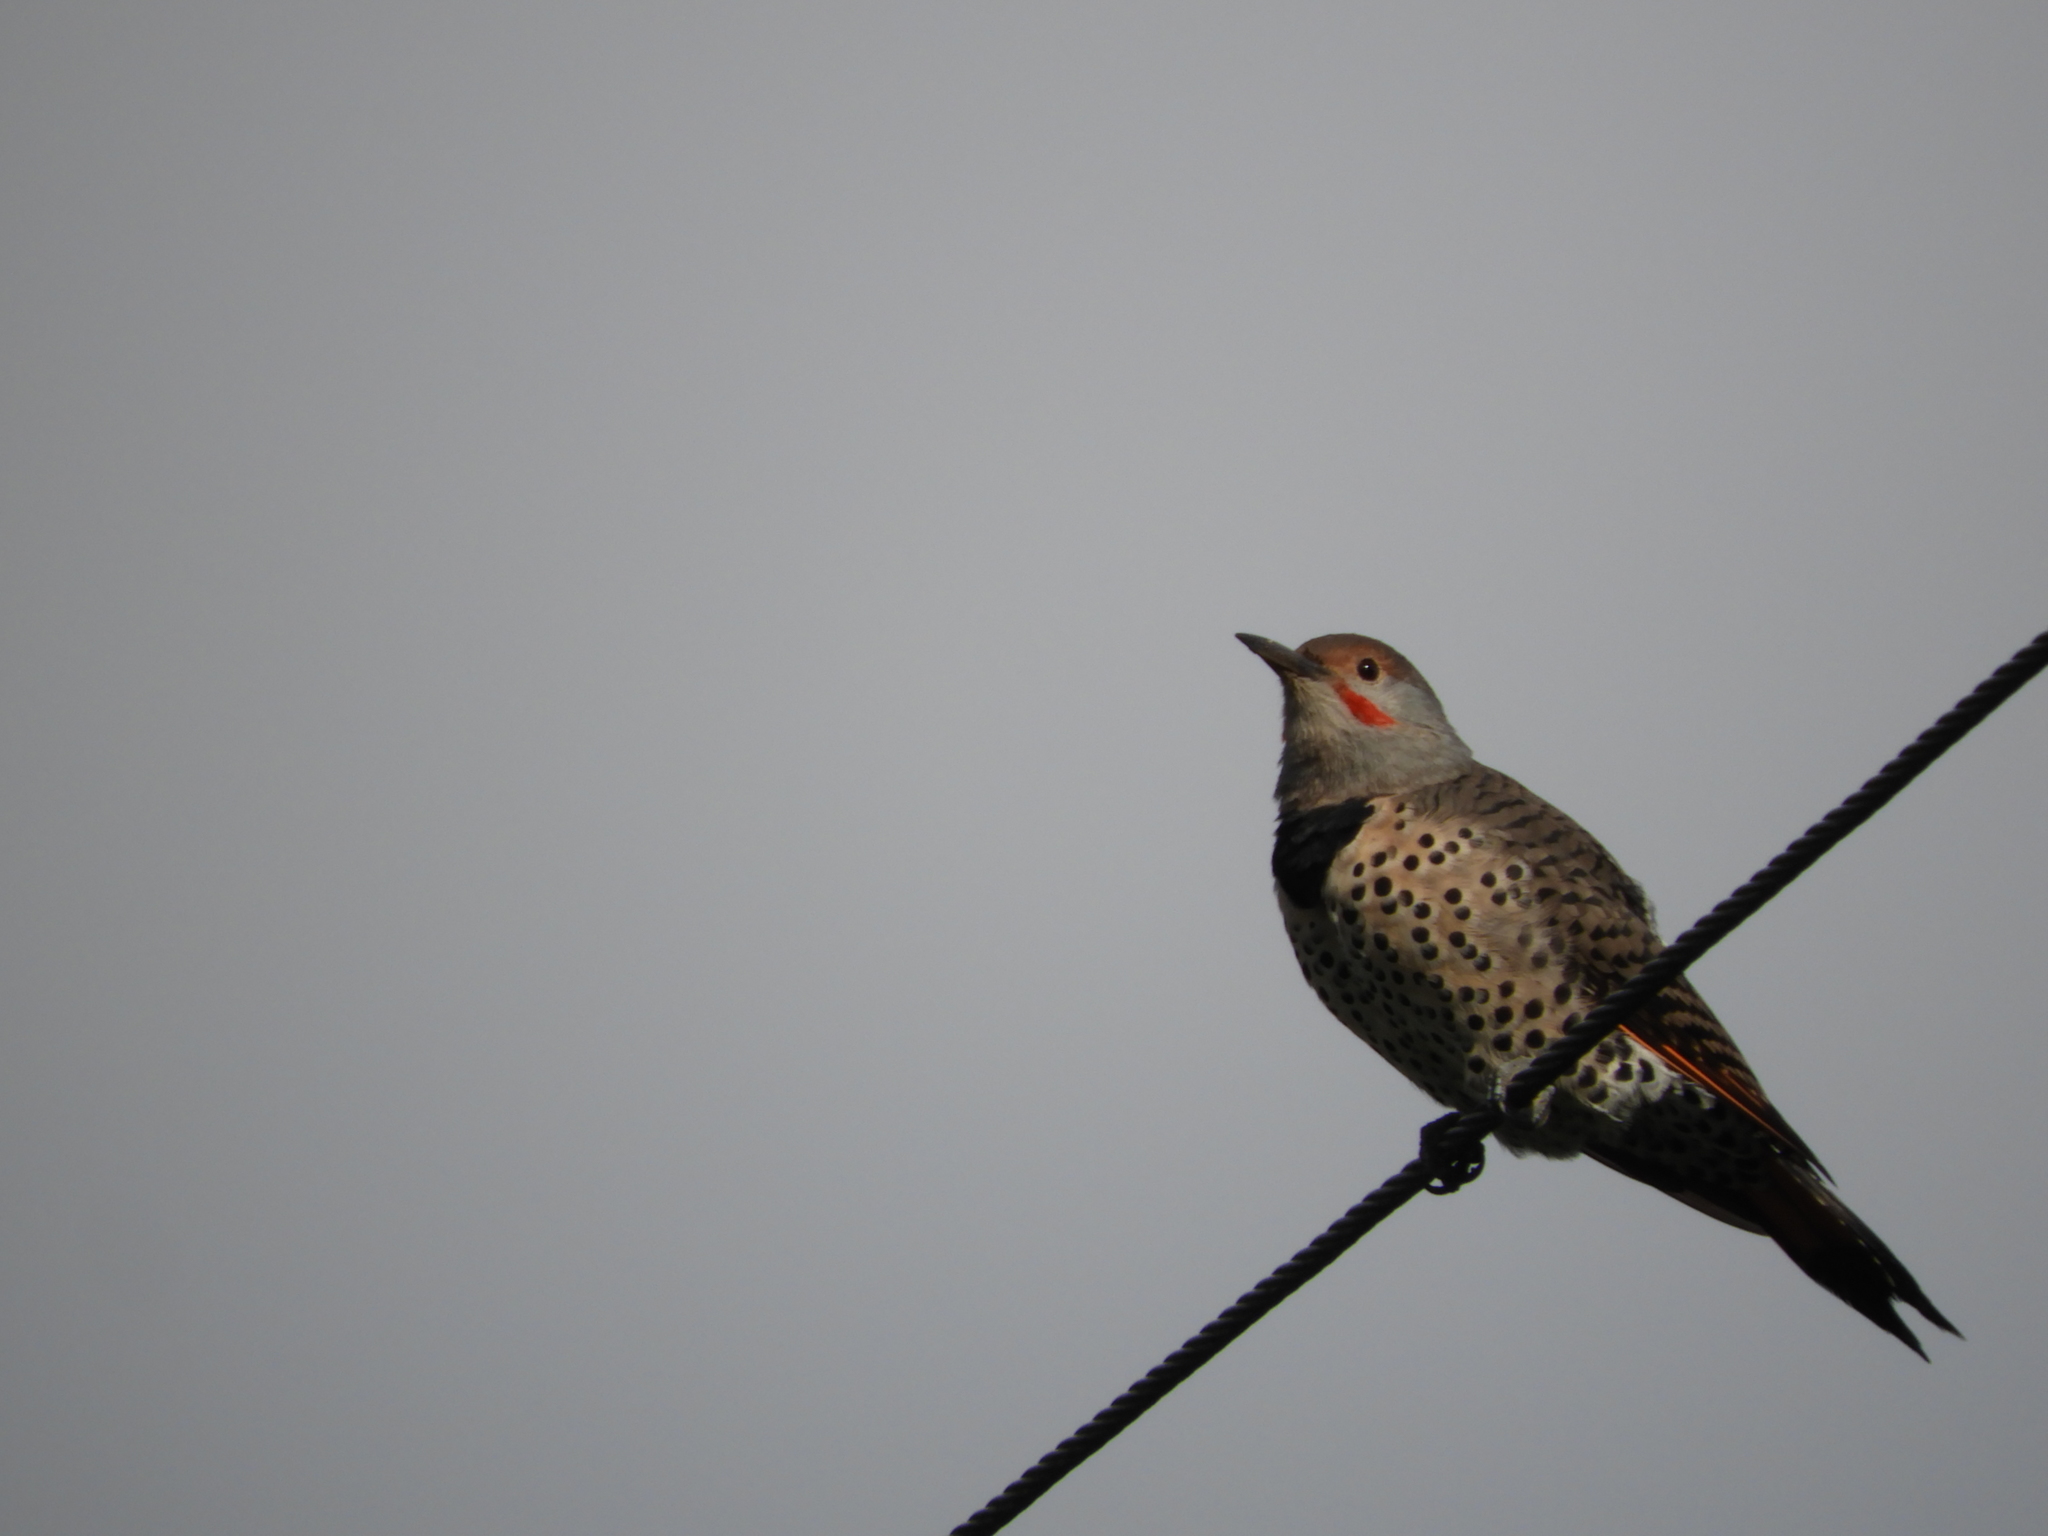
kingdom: Animalia
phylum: Chordata
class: Aves
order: Piciformes
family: Picidae
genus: Colaptes
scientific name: Colaptes auratus
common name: Northern flicker
